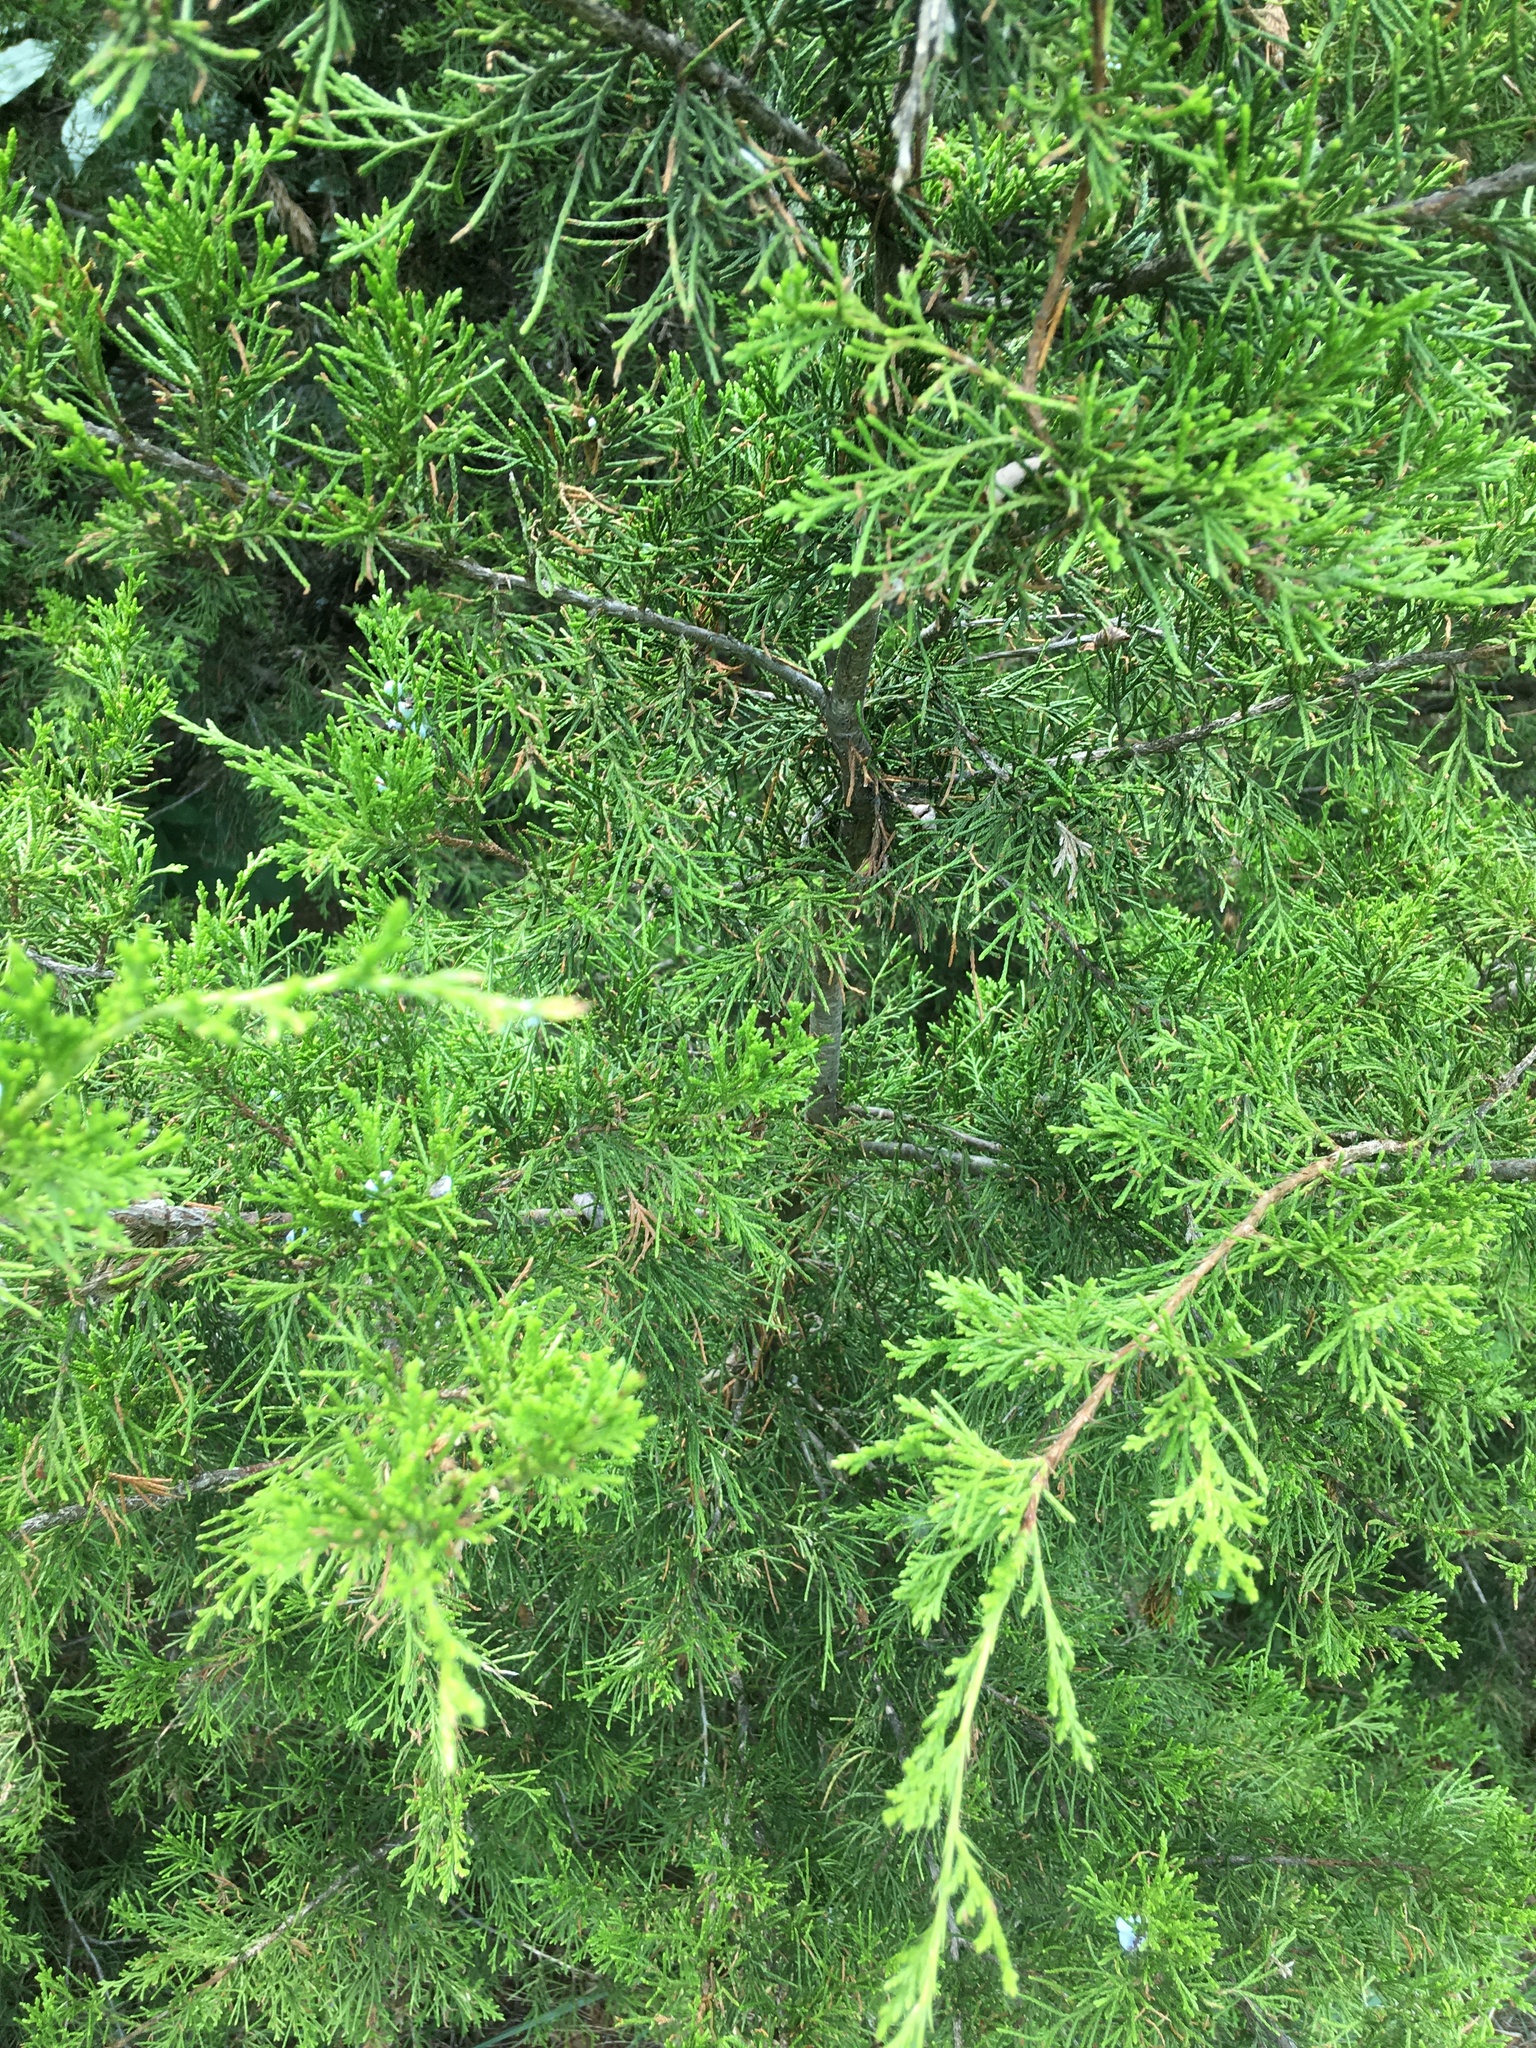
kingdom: Plantae
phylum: Tracheophyta
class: Pinopsida
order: Pinales
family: Cupressaceae
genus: Juniperus
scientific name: Juniperus virginiana
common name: Red juniper
